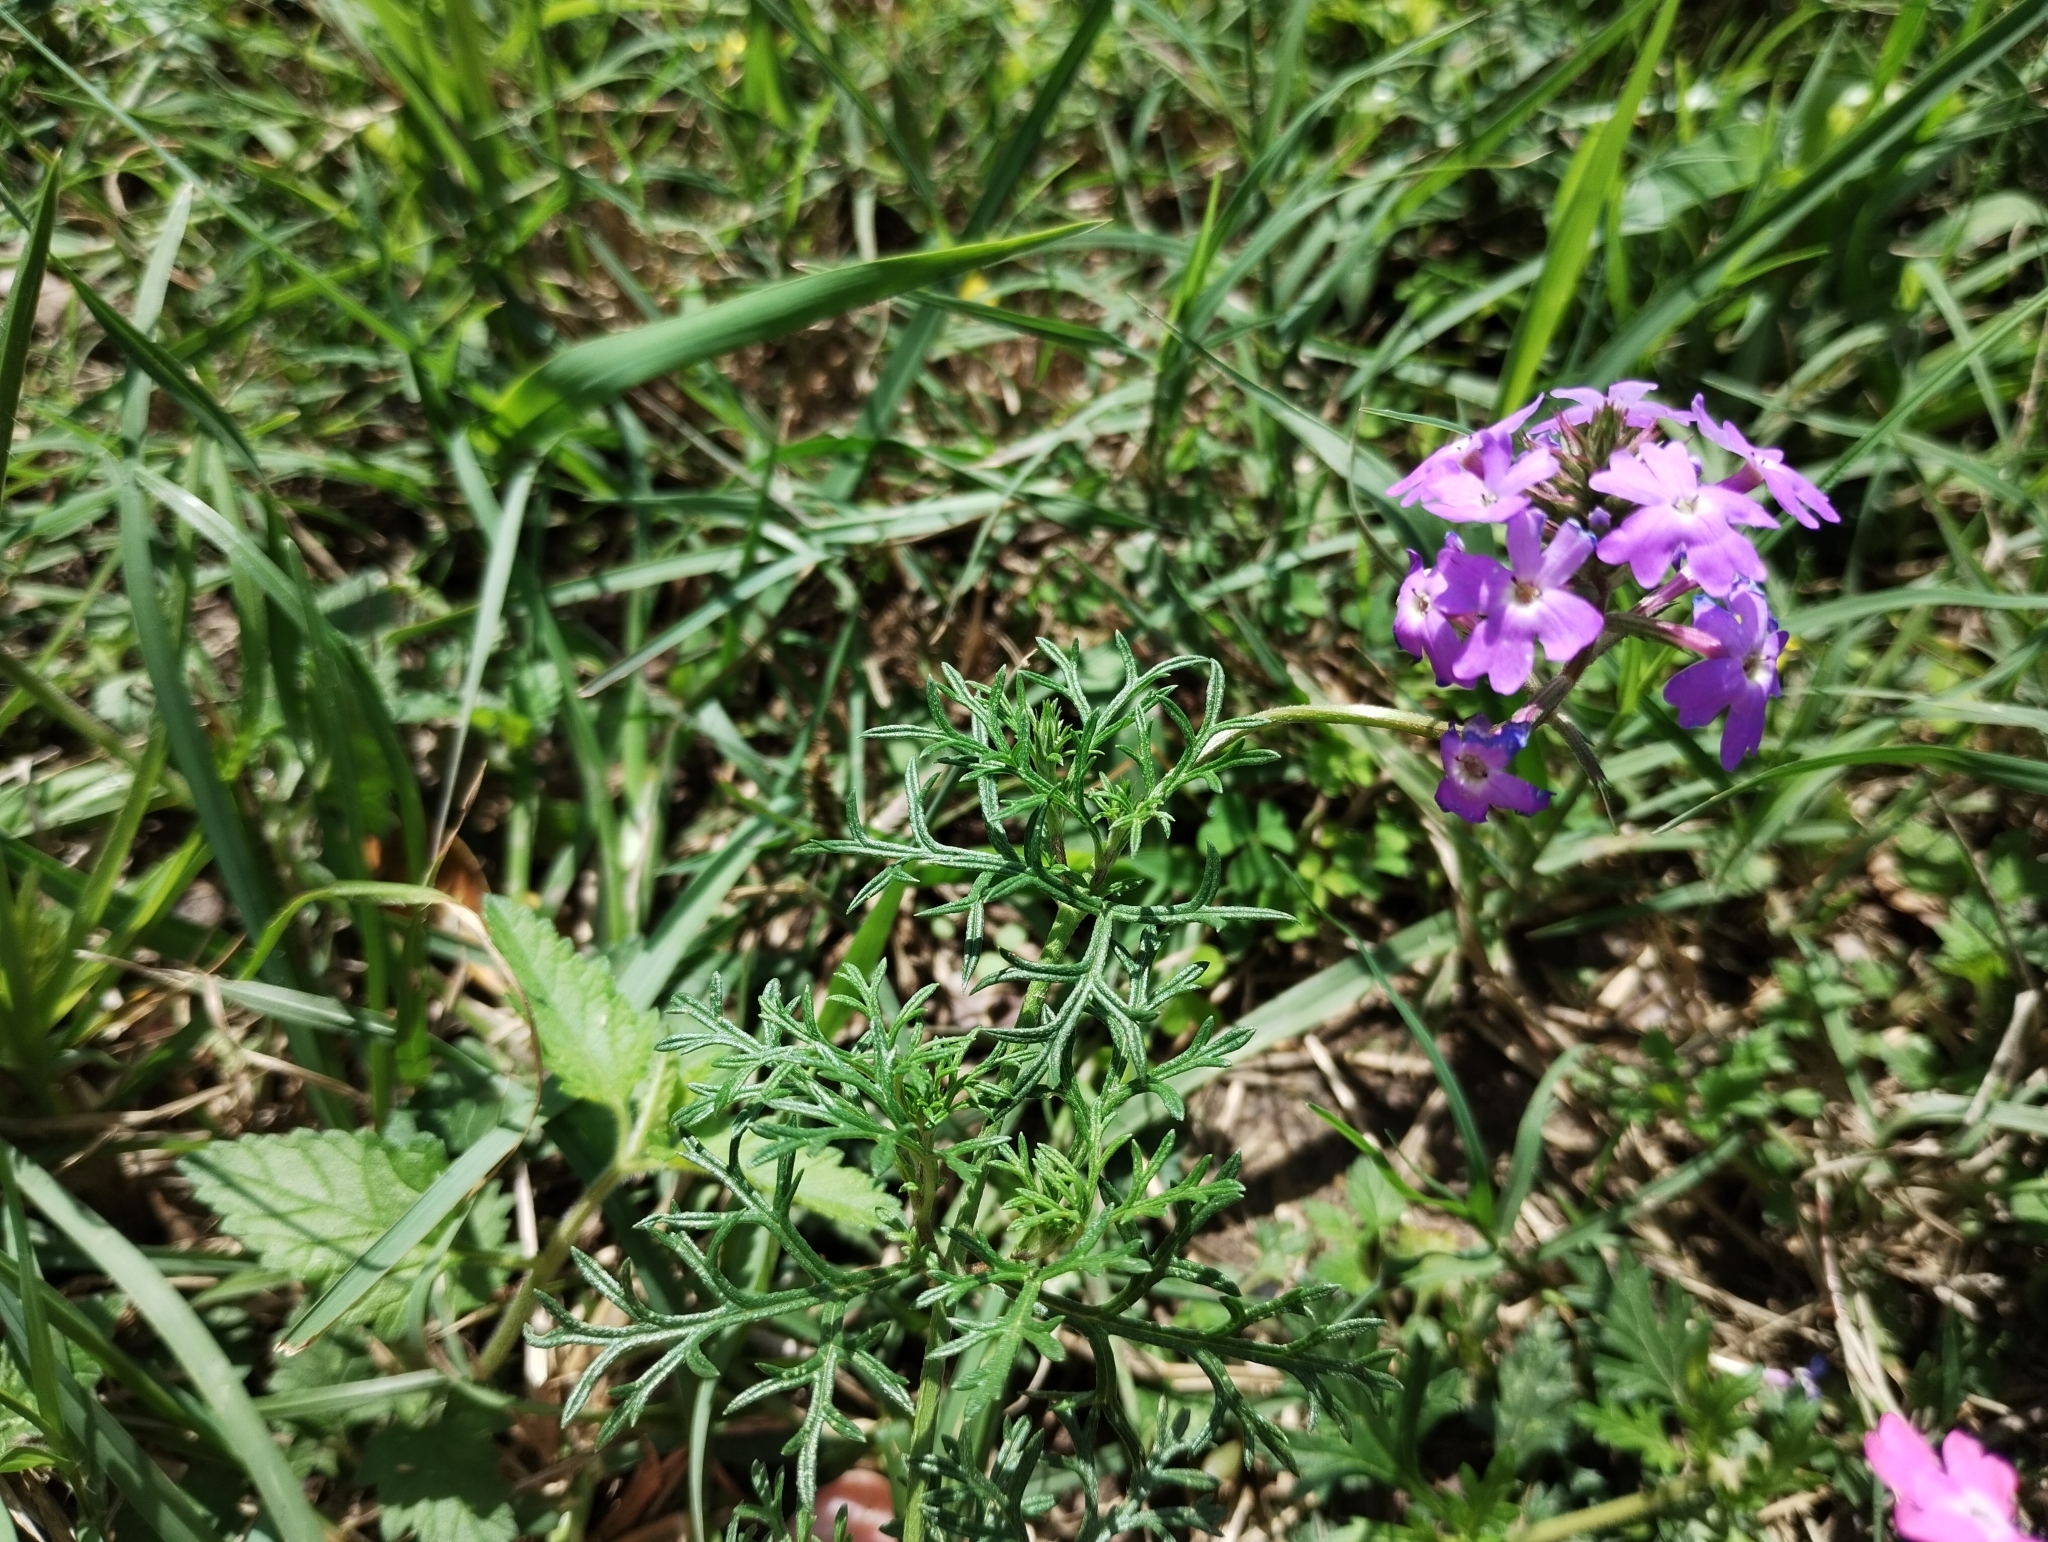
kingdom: Plantae
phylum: Tracheophyta
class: Magnoliopsida
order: Lamiales
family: Verbenaceae
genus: Verbena
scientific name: Verbena aristigera
